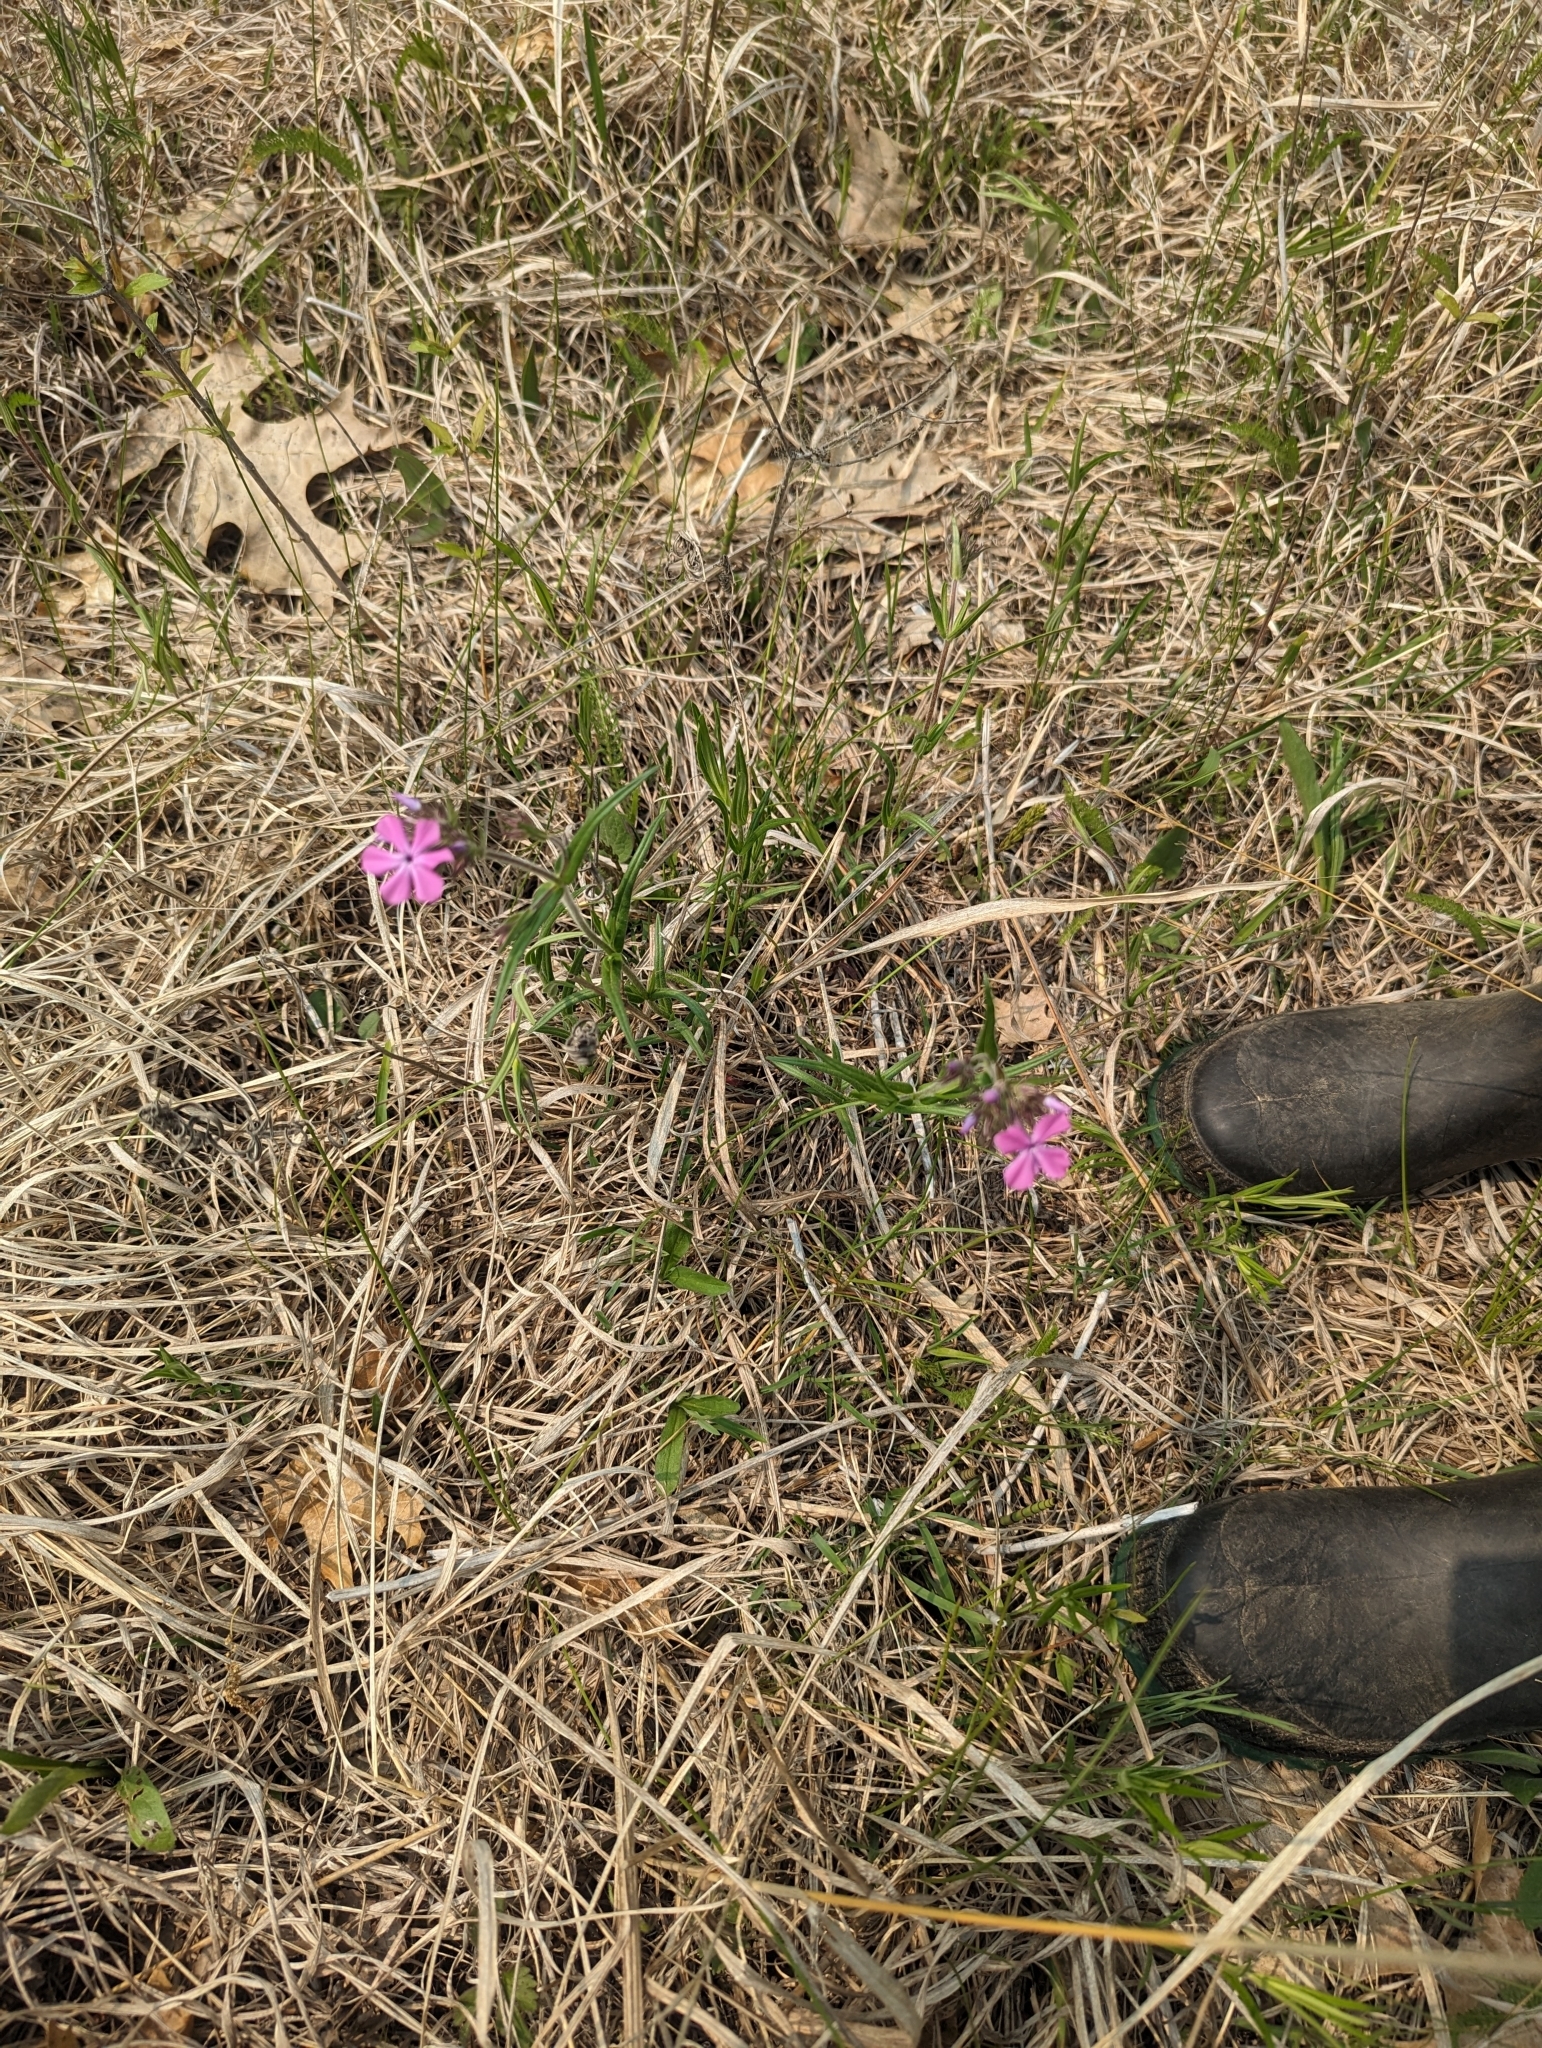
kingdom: Plantae
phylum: Tracheophyta
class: Magnoliopsida
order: Ericales
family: Polemoniaceae
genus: Phlox
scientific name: Phlox pilosa
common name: Prairie phlox
